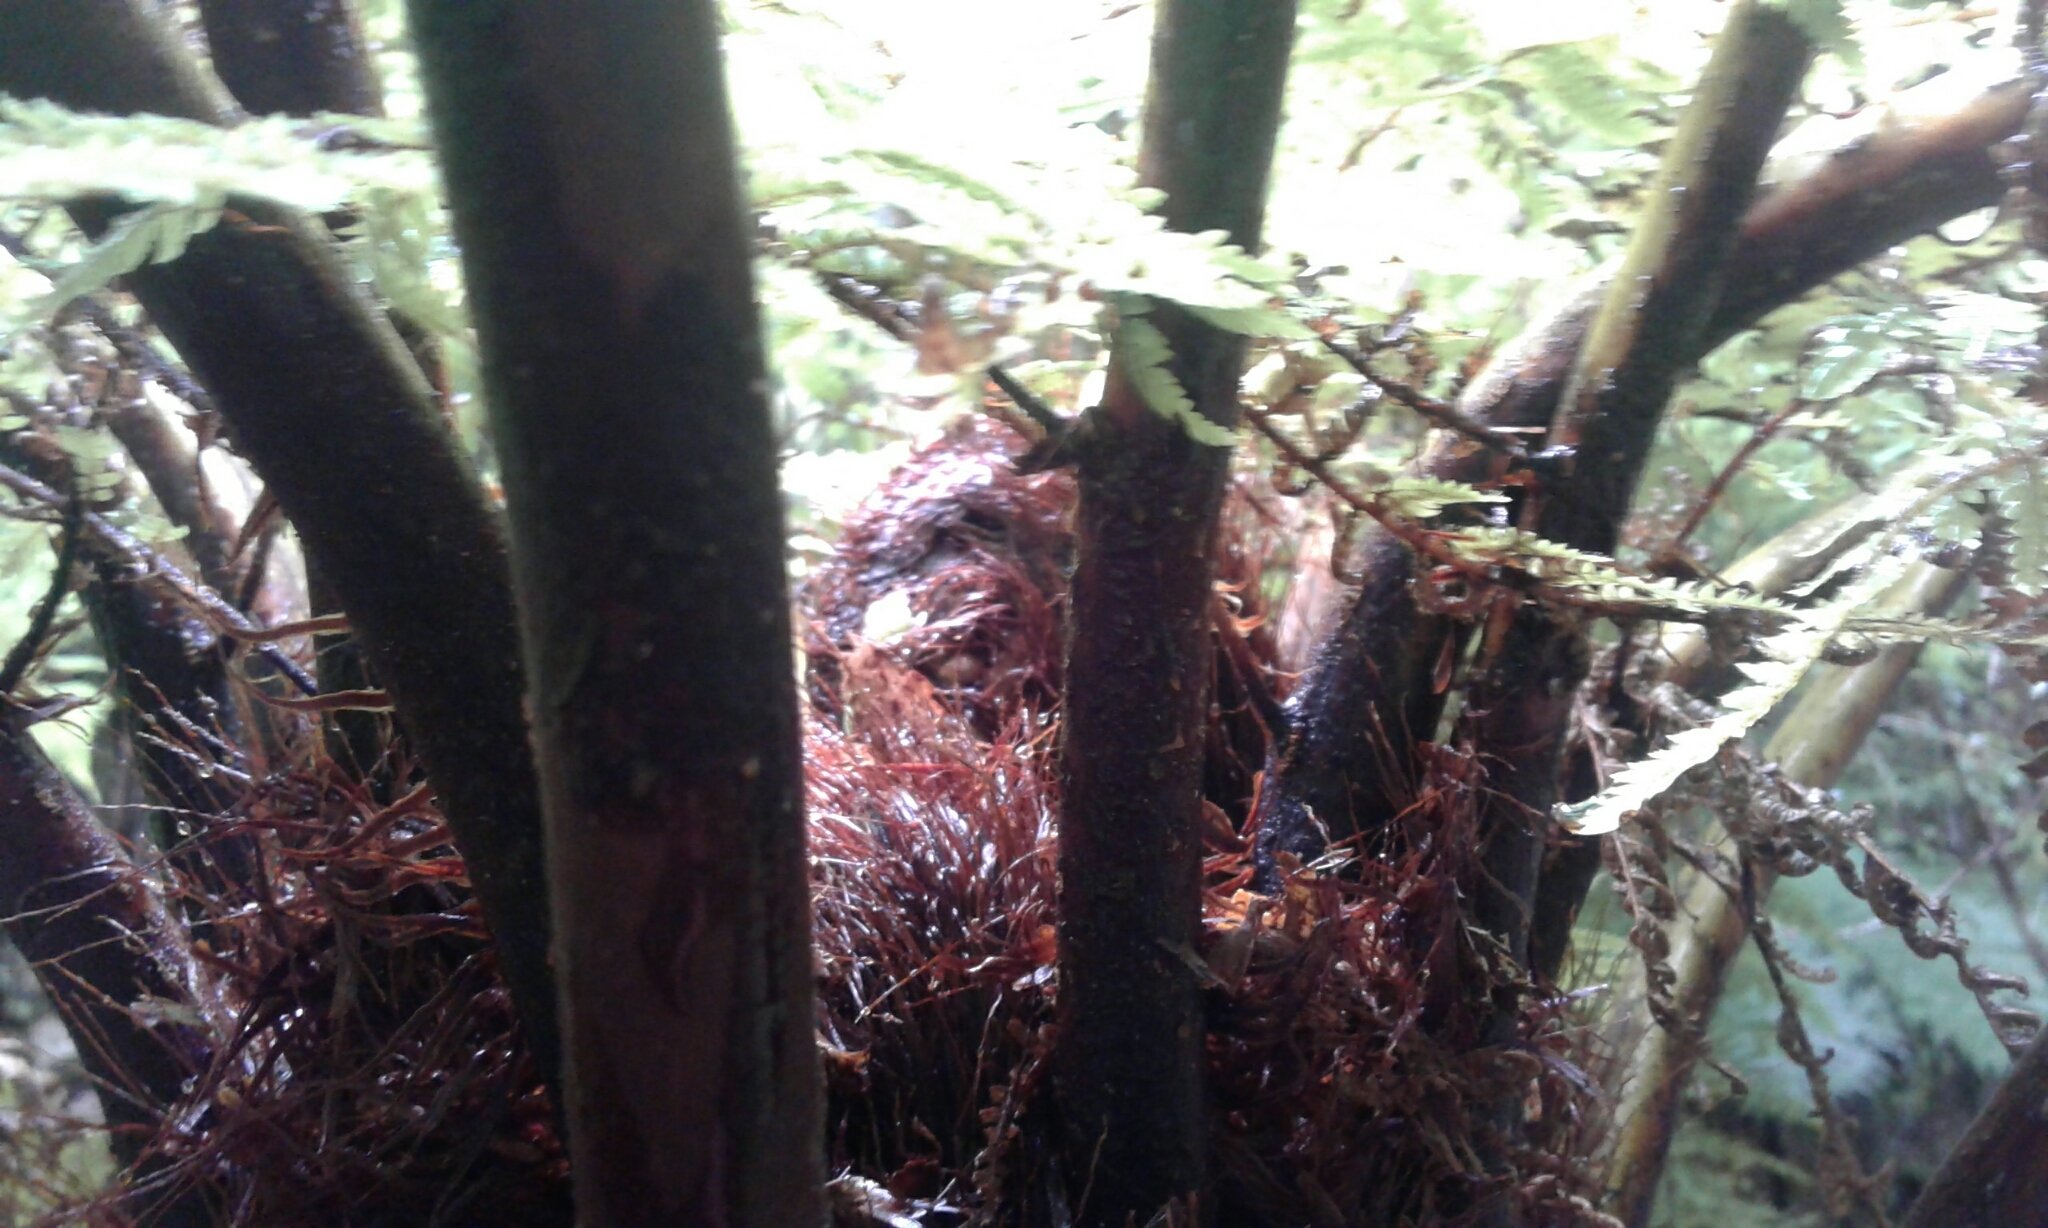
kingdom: Plantae
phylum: Tracheophyta
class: Polypodiopsida
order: Cyatheales
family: Cyatheaceae
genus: Alsophila
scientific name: Alsophila smithii
